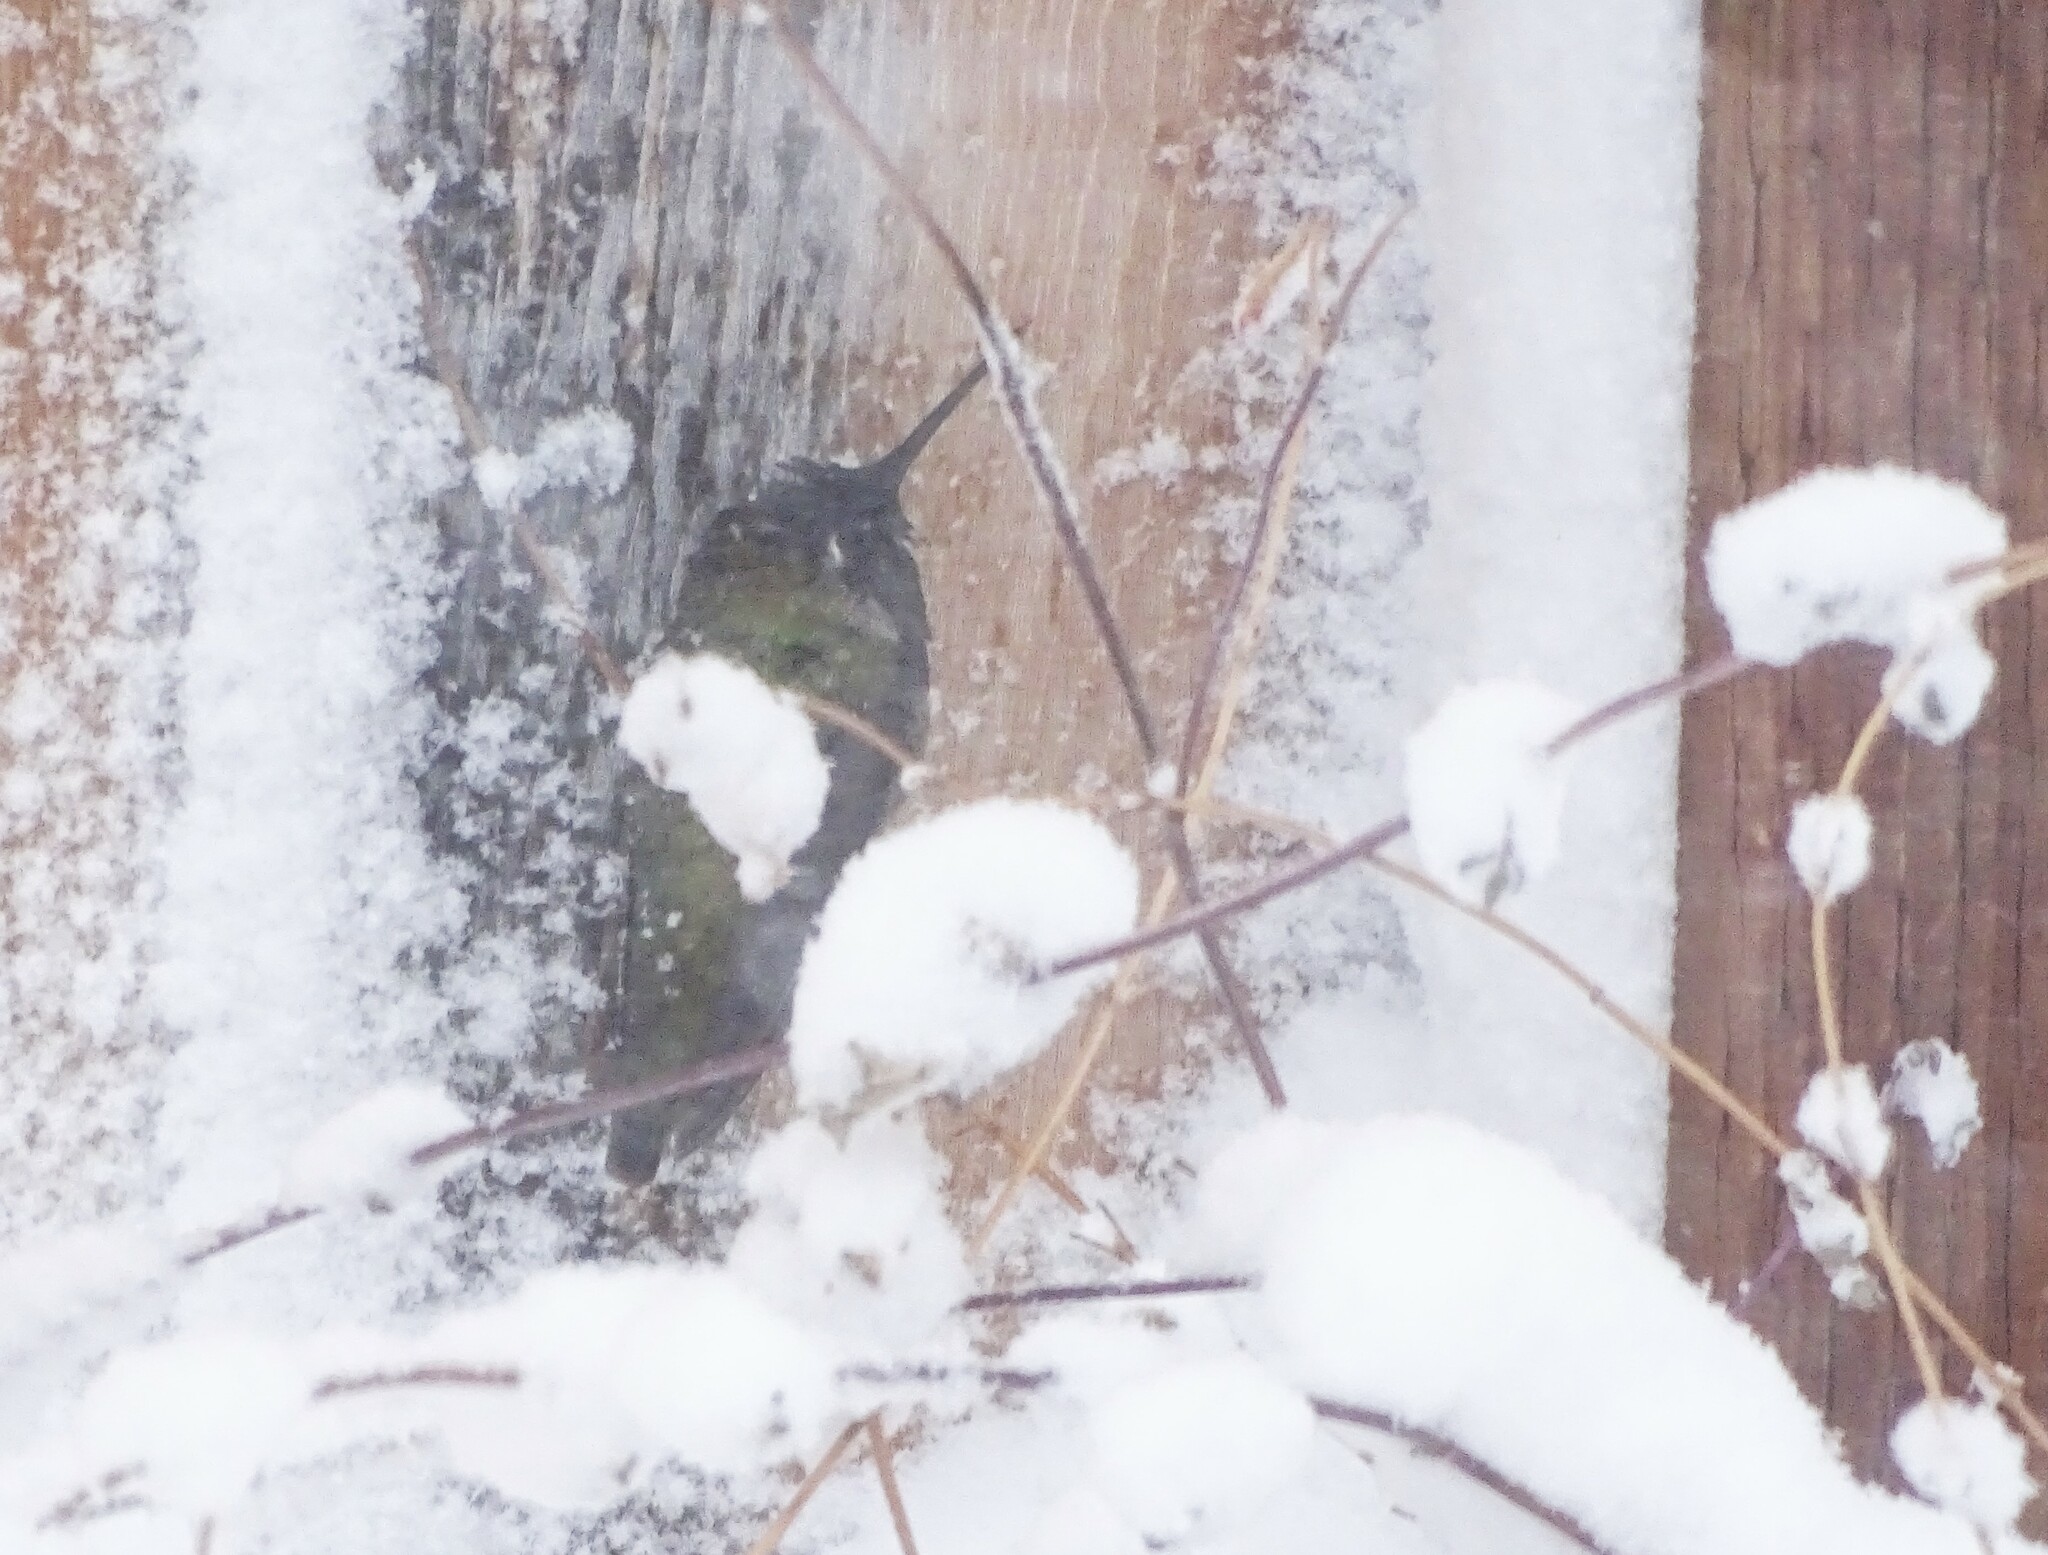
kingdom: Animalia
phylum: Chordata
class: Aves
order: Apodiformes
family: Trochilidae
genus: Calypte
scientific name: Calypte anna
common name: Anna's hummingbird
